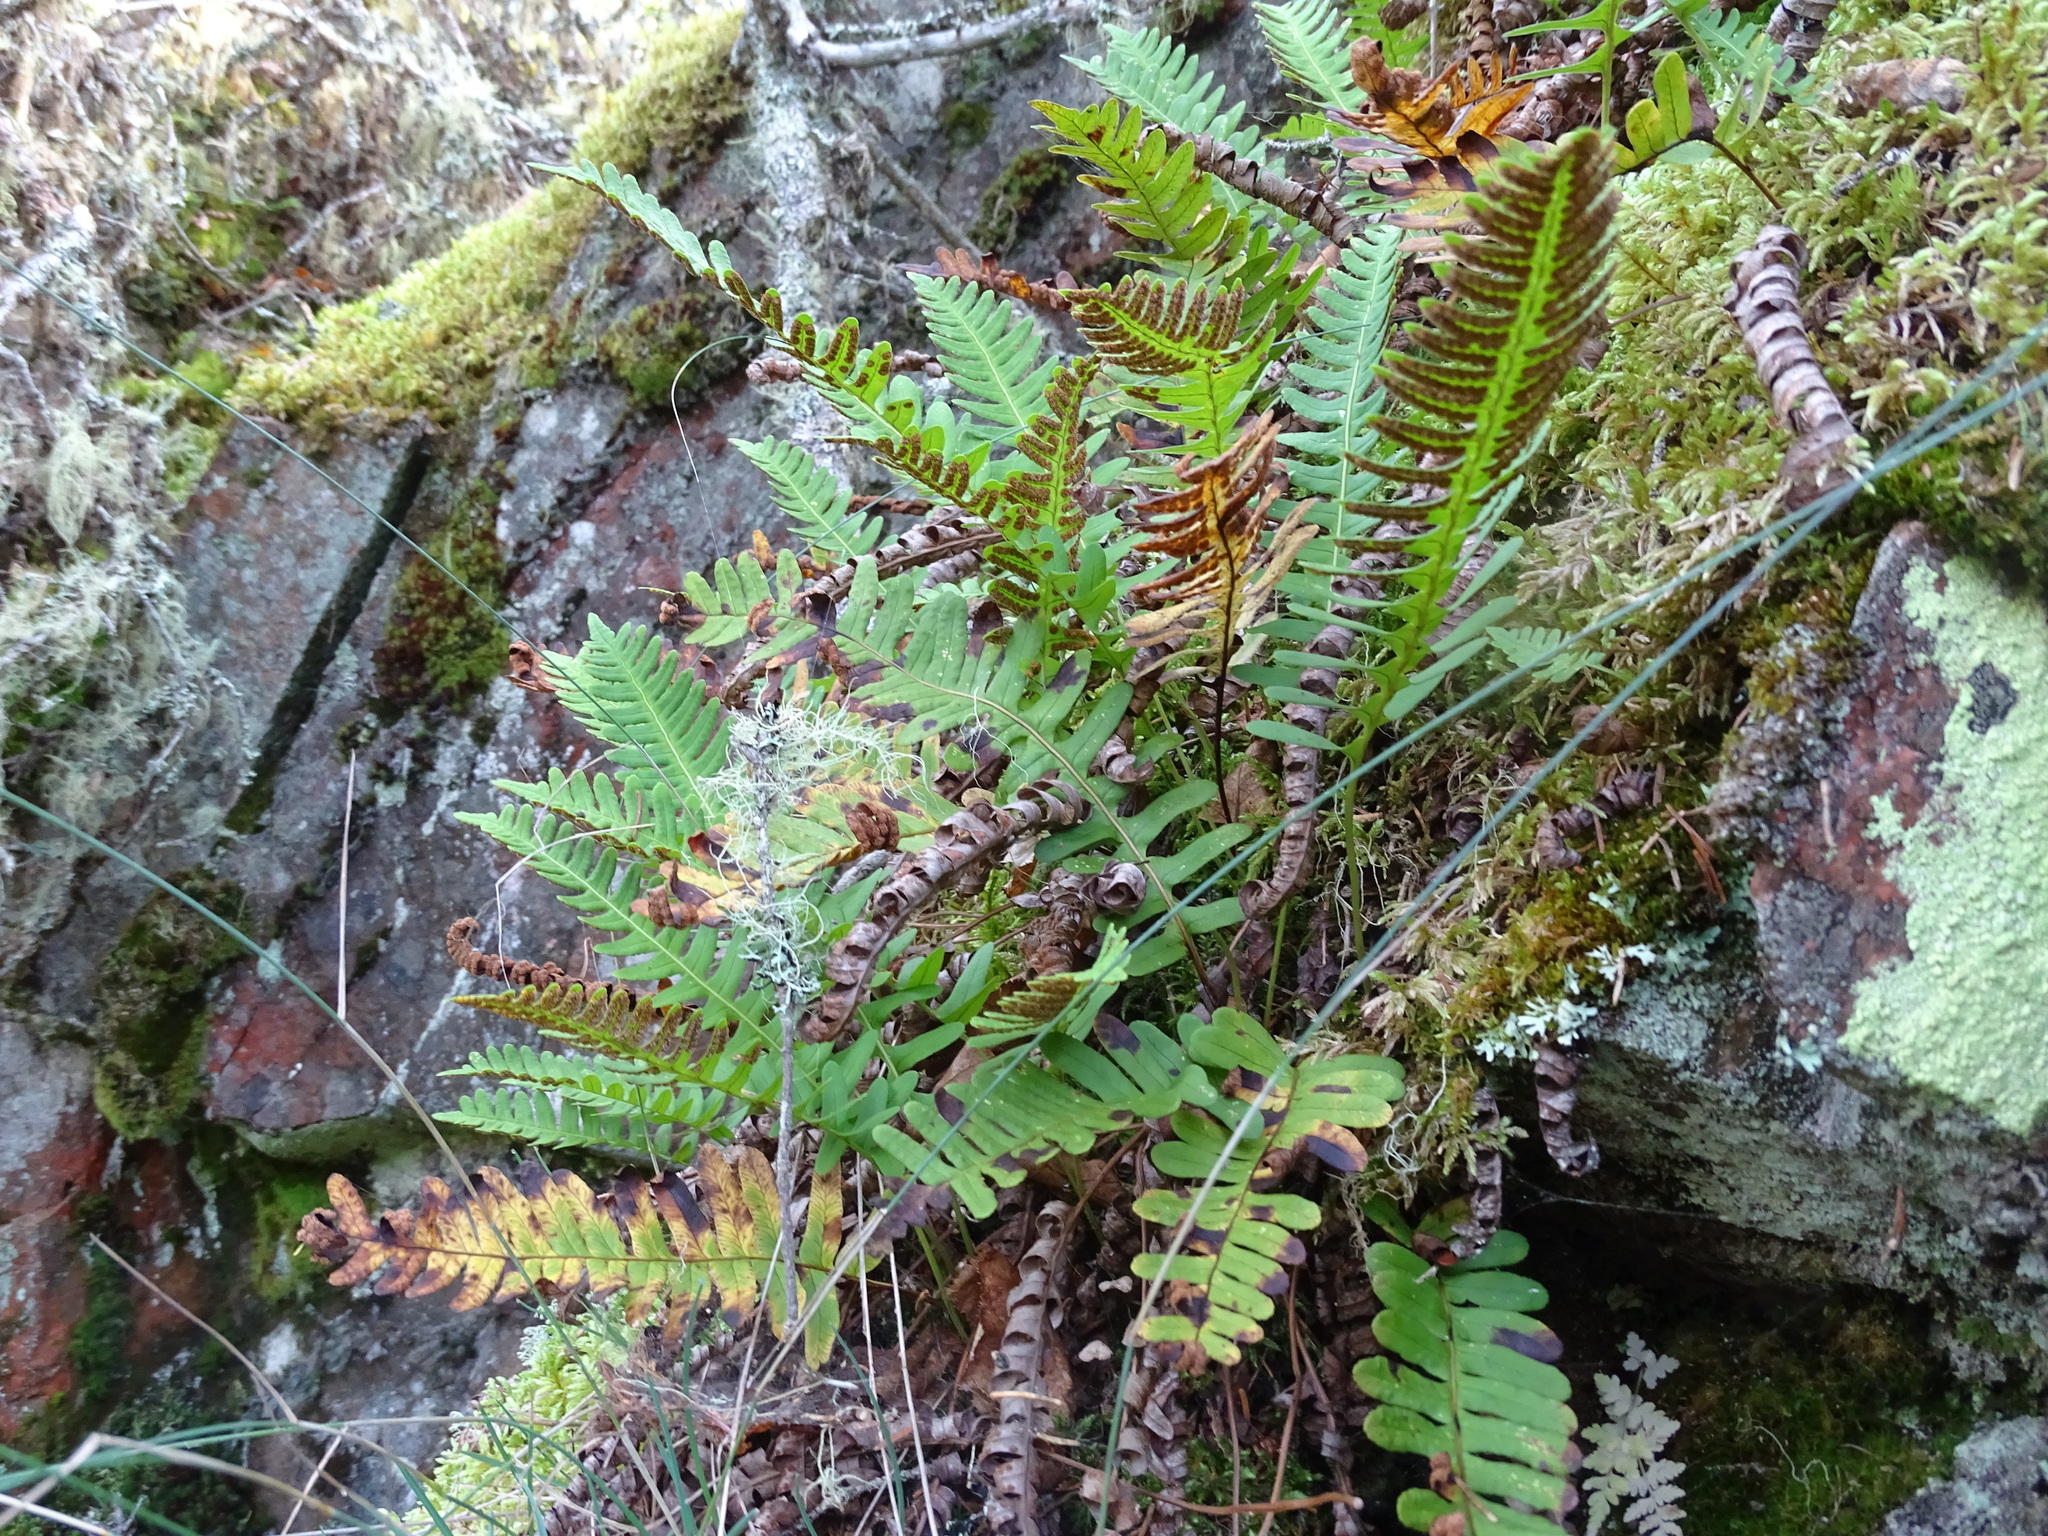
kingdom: Plantae
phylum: Tracheophyta
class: Polypodiopsida
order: Polypodiales
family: Polypodiaceae
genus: Polypodium
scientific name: Polypodium virginianum
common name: American wall fern
